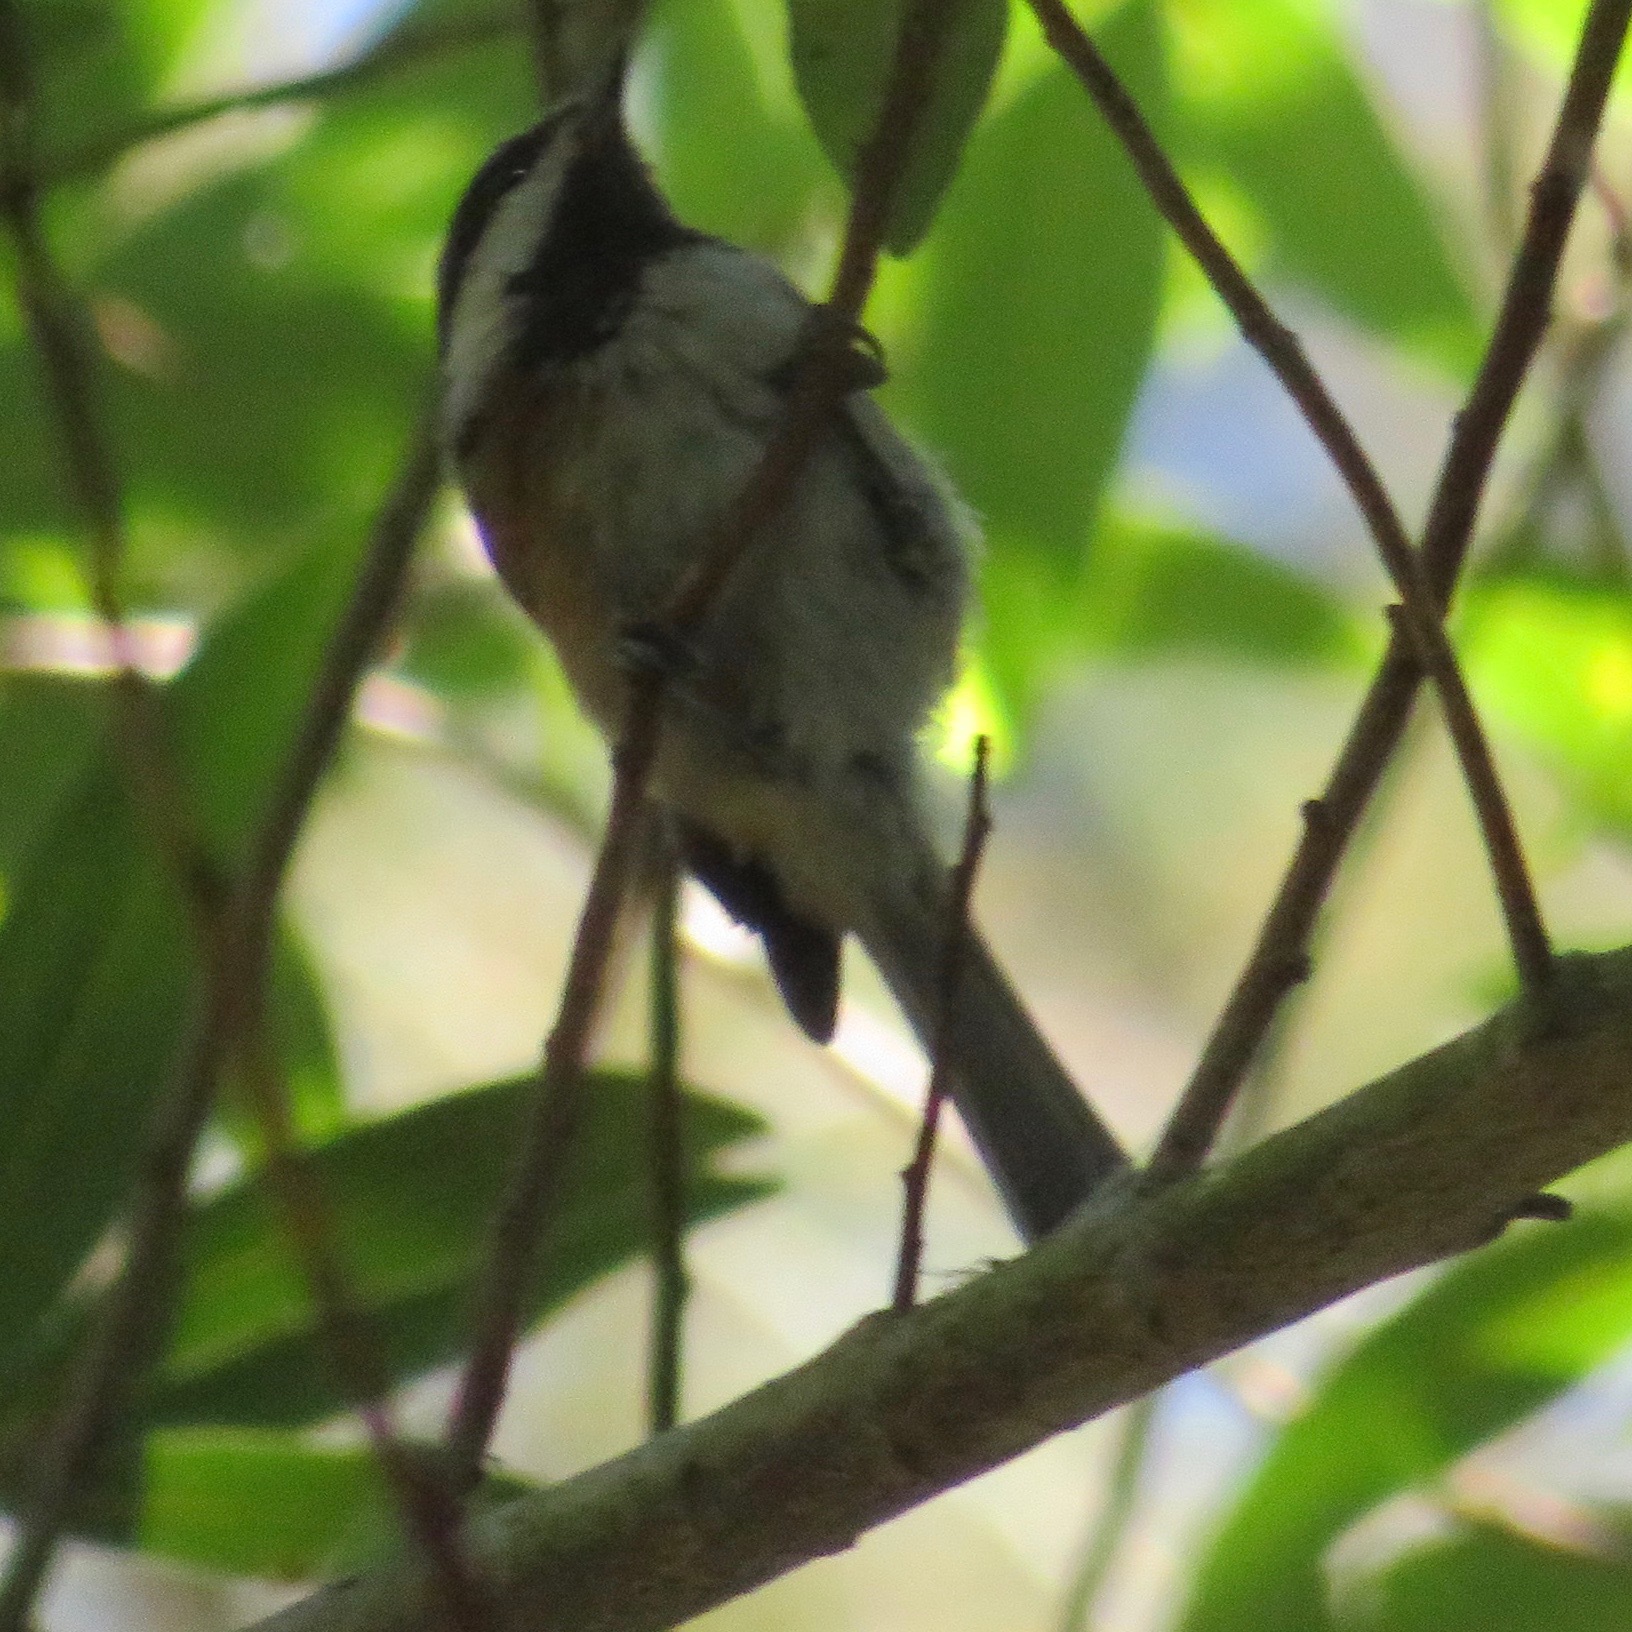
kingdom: Animalia
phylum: Chordata
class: Aves
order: Passeriformes
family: Paridae
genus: Poecile
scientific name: Poecile rufescens
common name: Chestnut-backed chickadee
